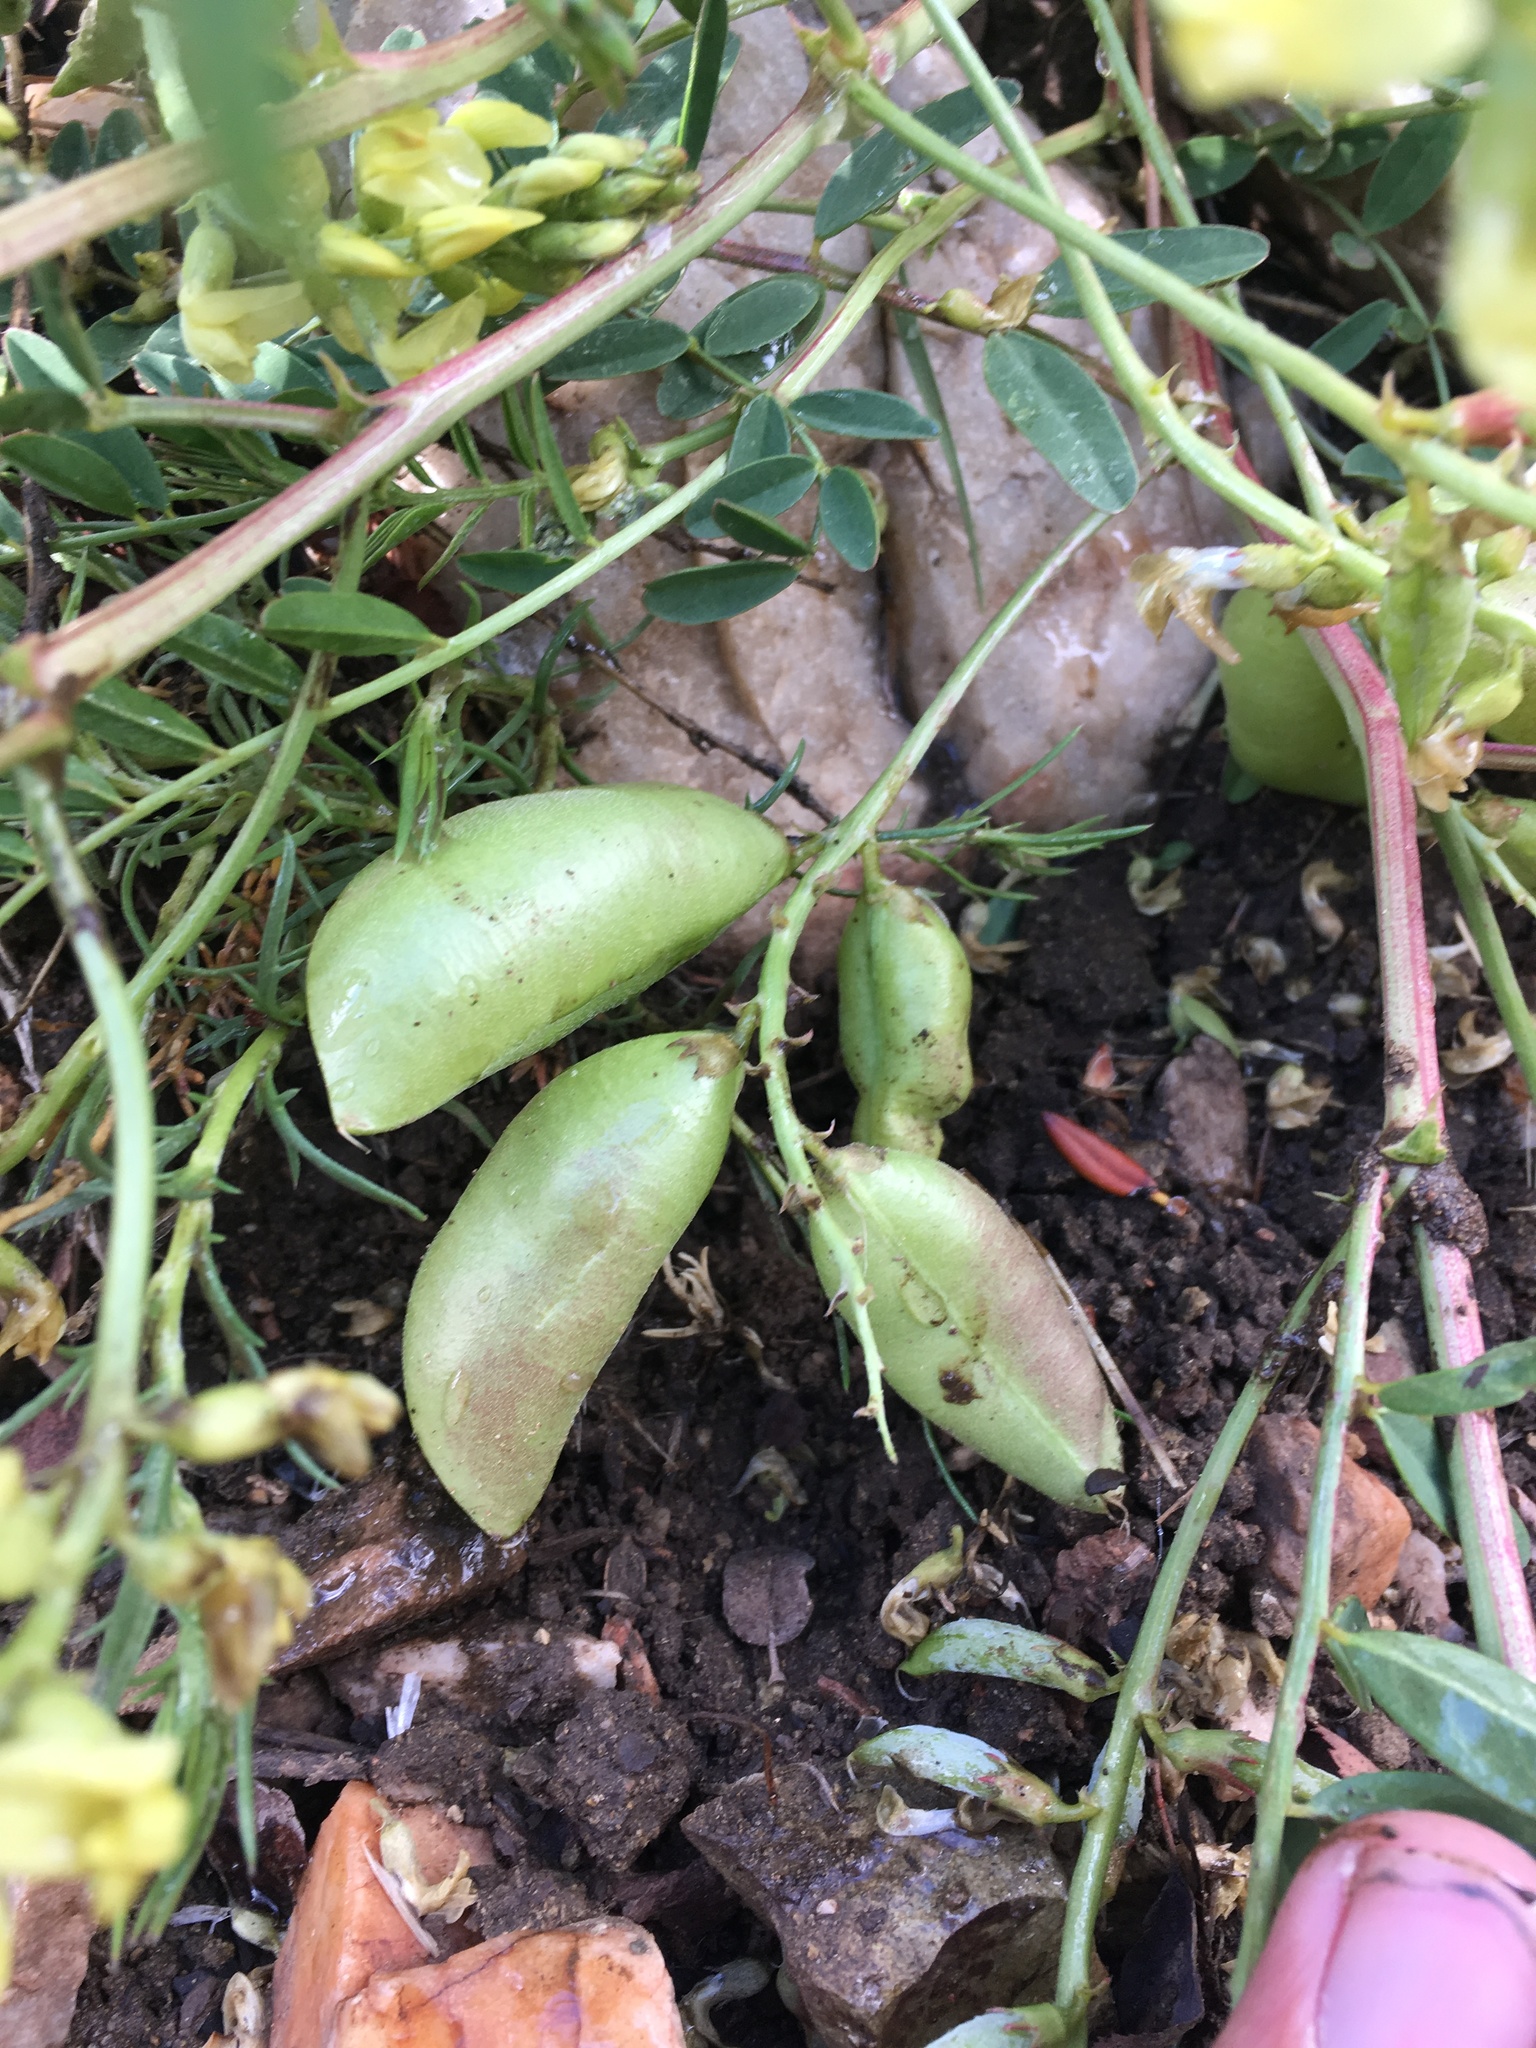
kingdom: Plantae
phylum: Tracheophyta
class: Magnoliopsida
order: Fabales
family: Fabaceae
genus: Astragalus
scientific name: Astragalus douglasii
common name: Jacumba milkvetch
